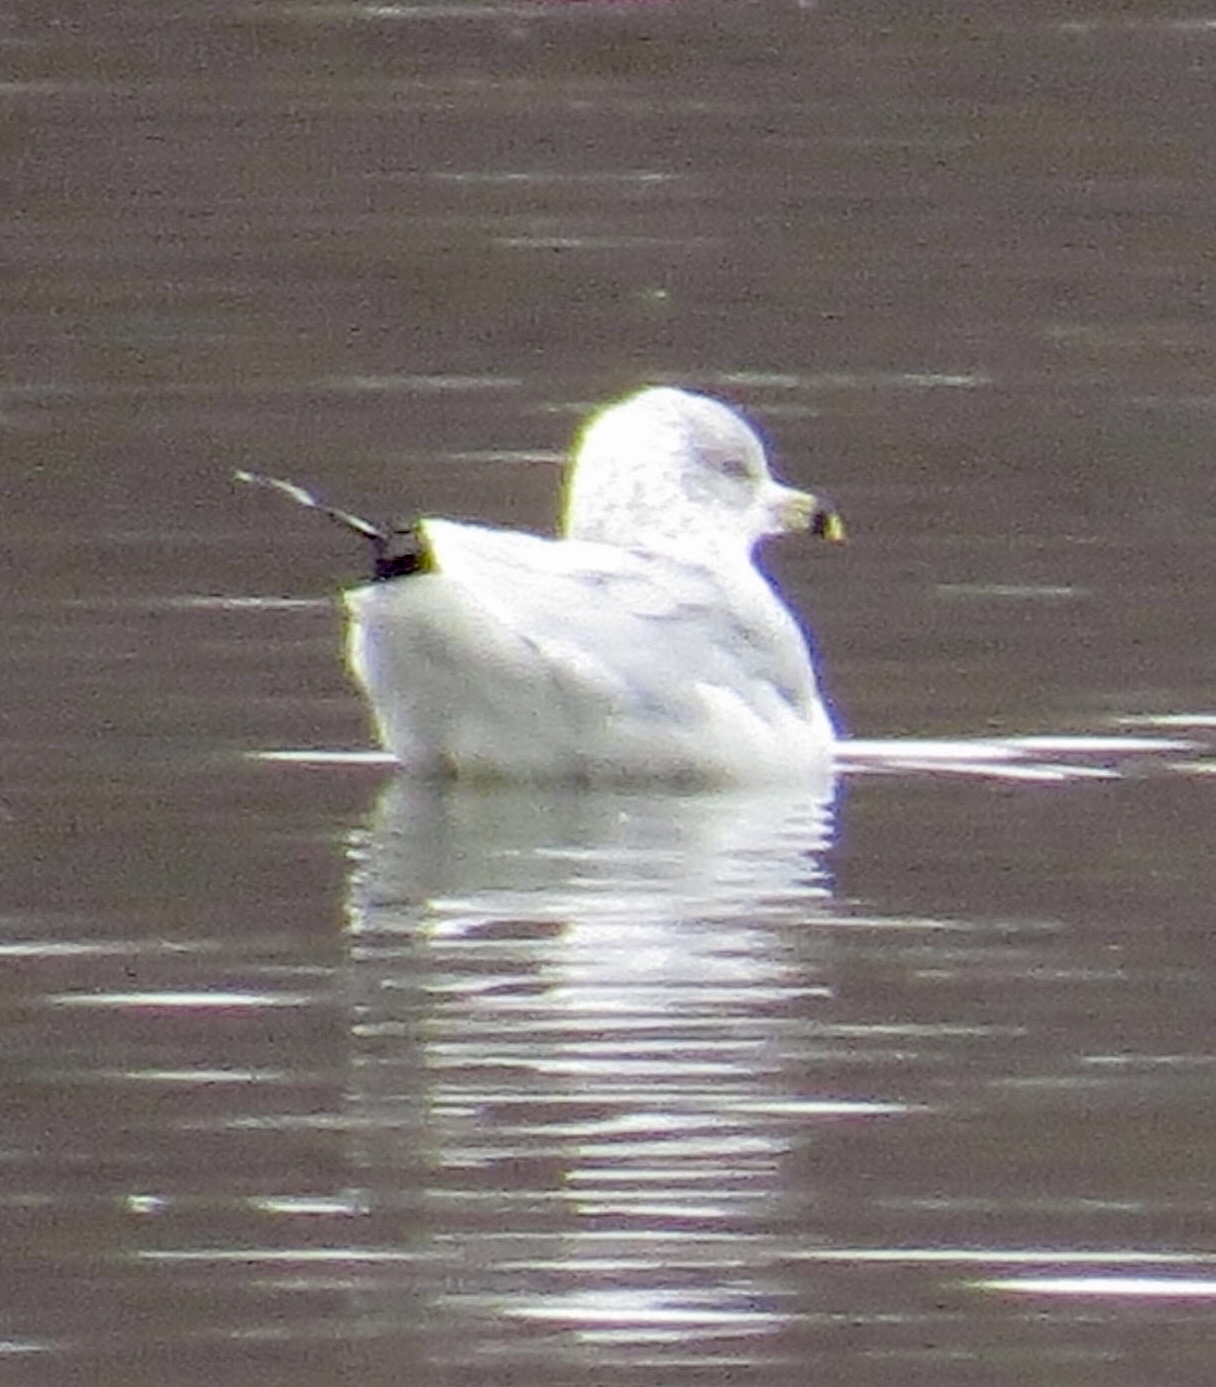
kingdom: Animalia
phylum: Chordata
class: Aves
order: Charadriiformes
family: Laridae
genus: Larus
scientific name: Larus delawarensis
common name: Ring-billed gull
